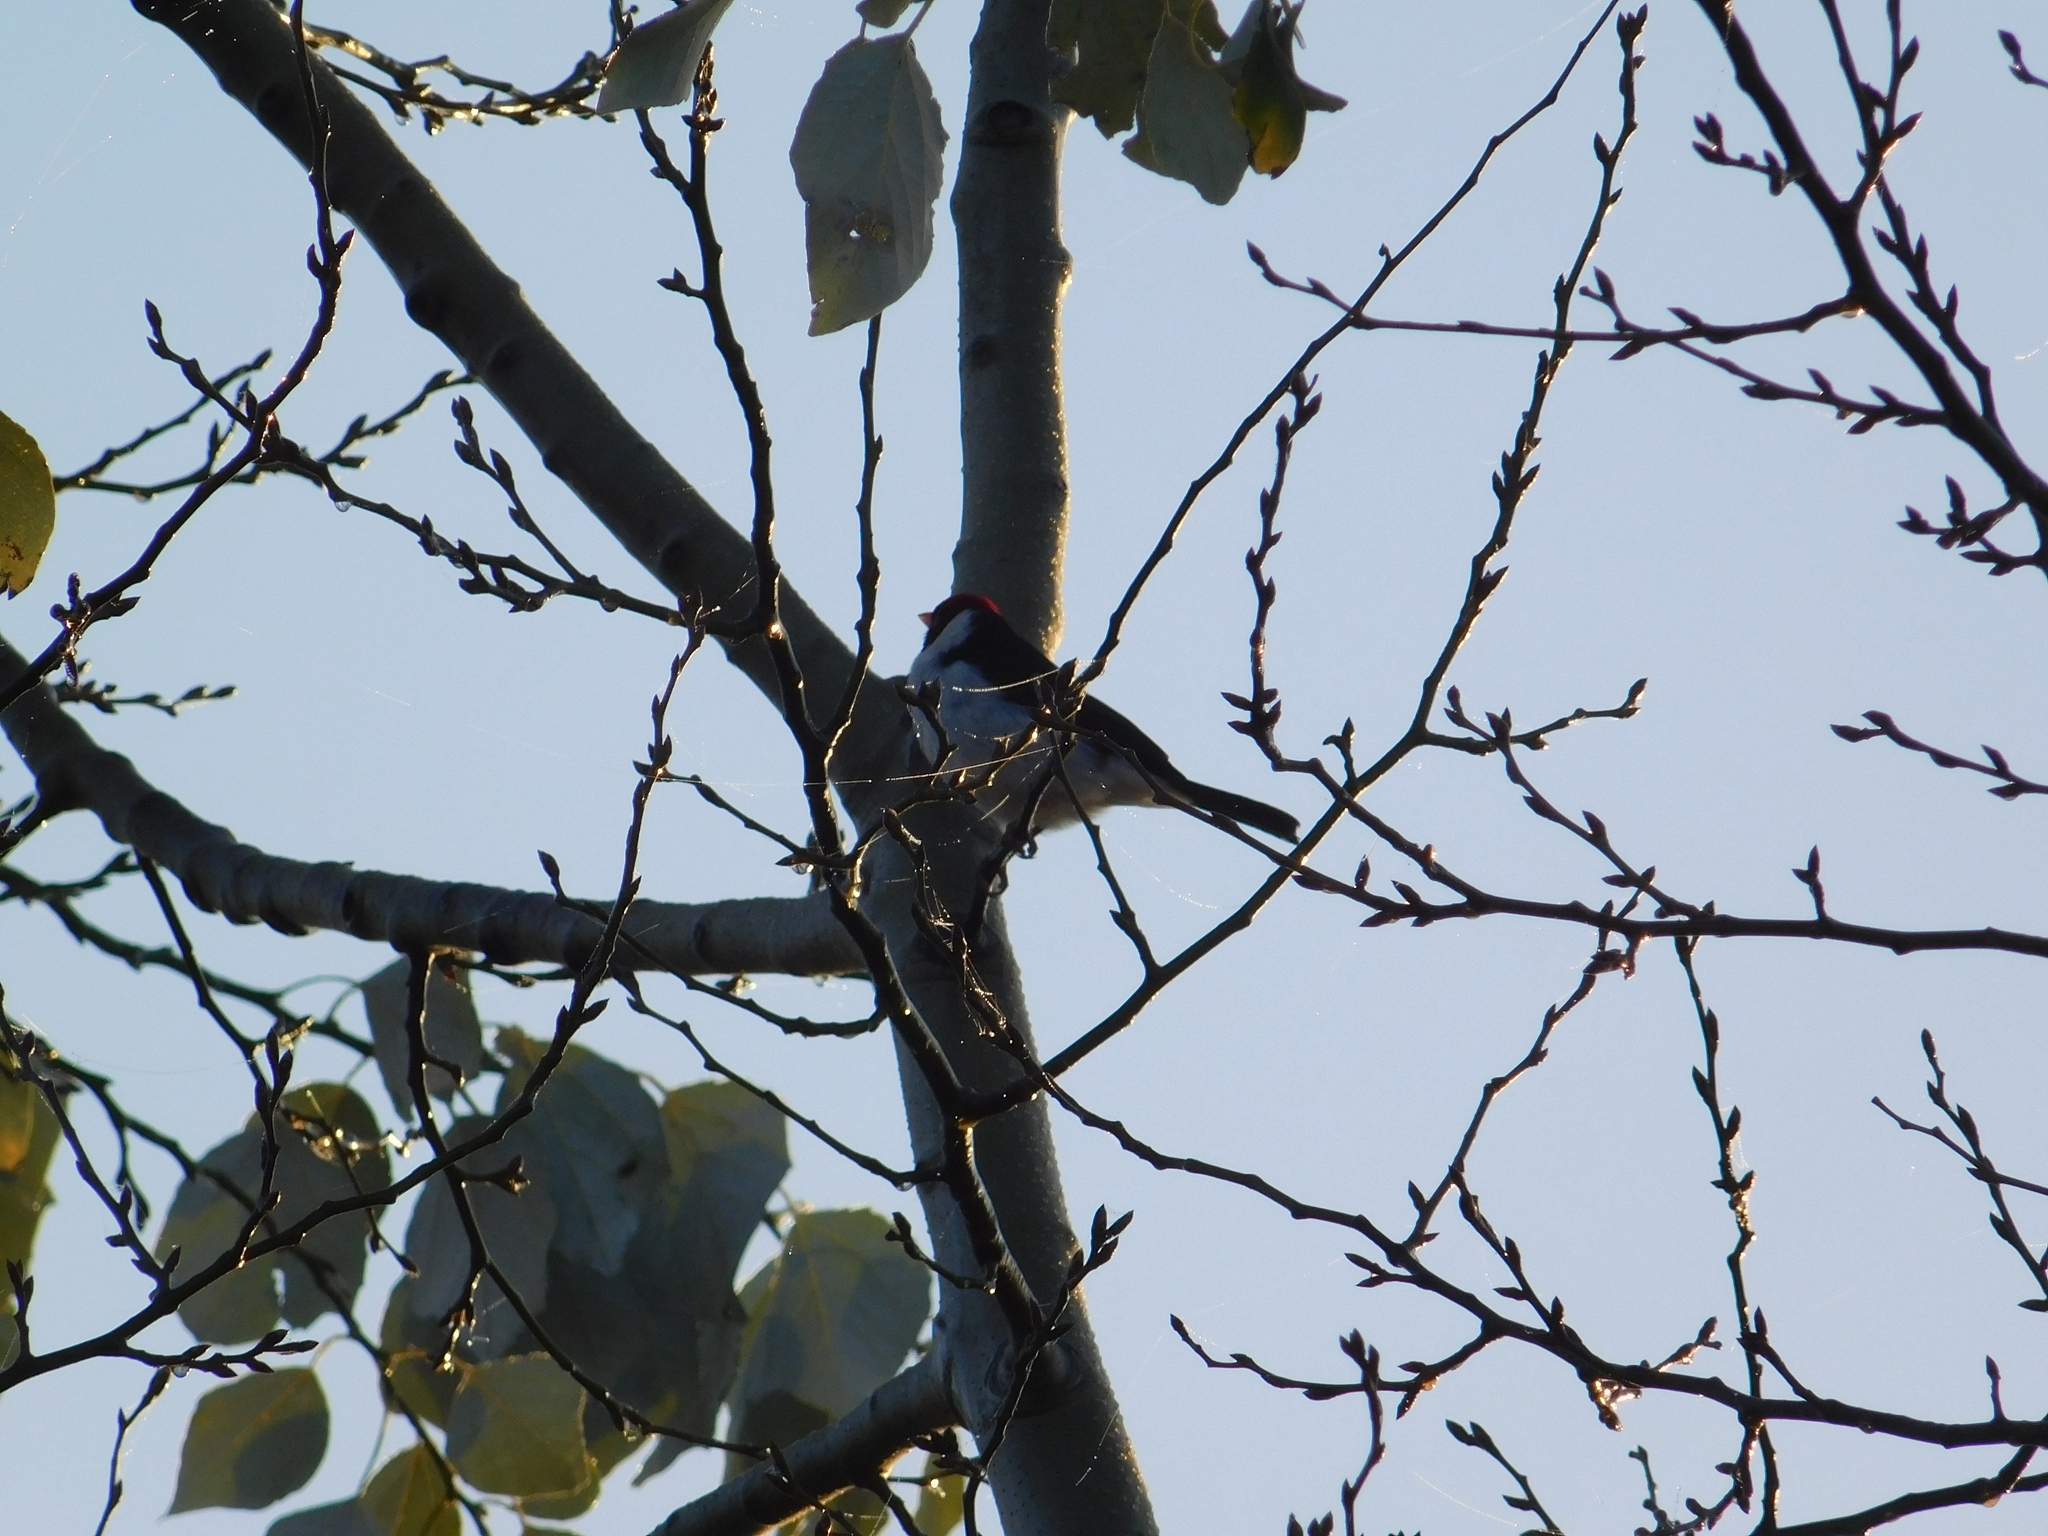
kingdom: Animalia
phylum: Chordata
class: Aves
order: Passeriformes
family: Thraupidae
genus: Paroaria
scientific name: Paroaria capitata
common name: Yellow-billed cardinal
